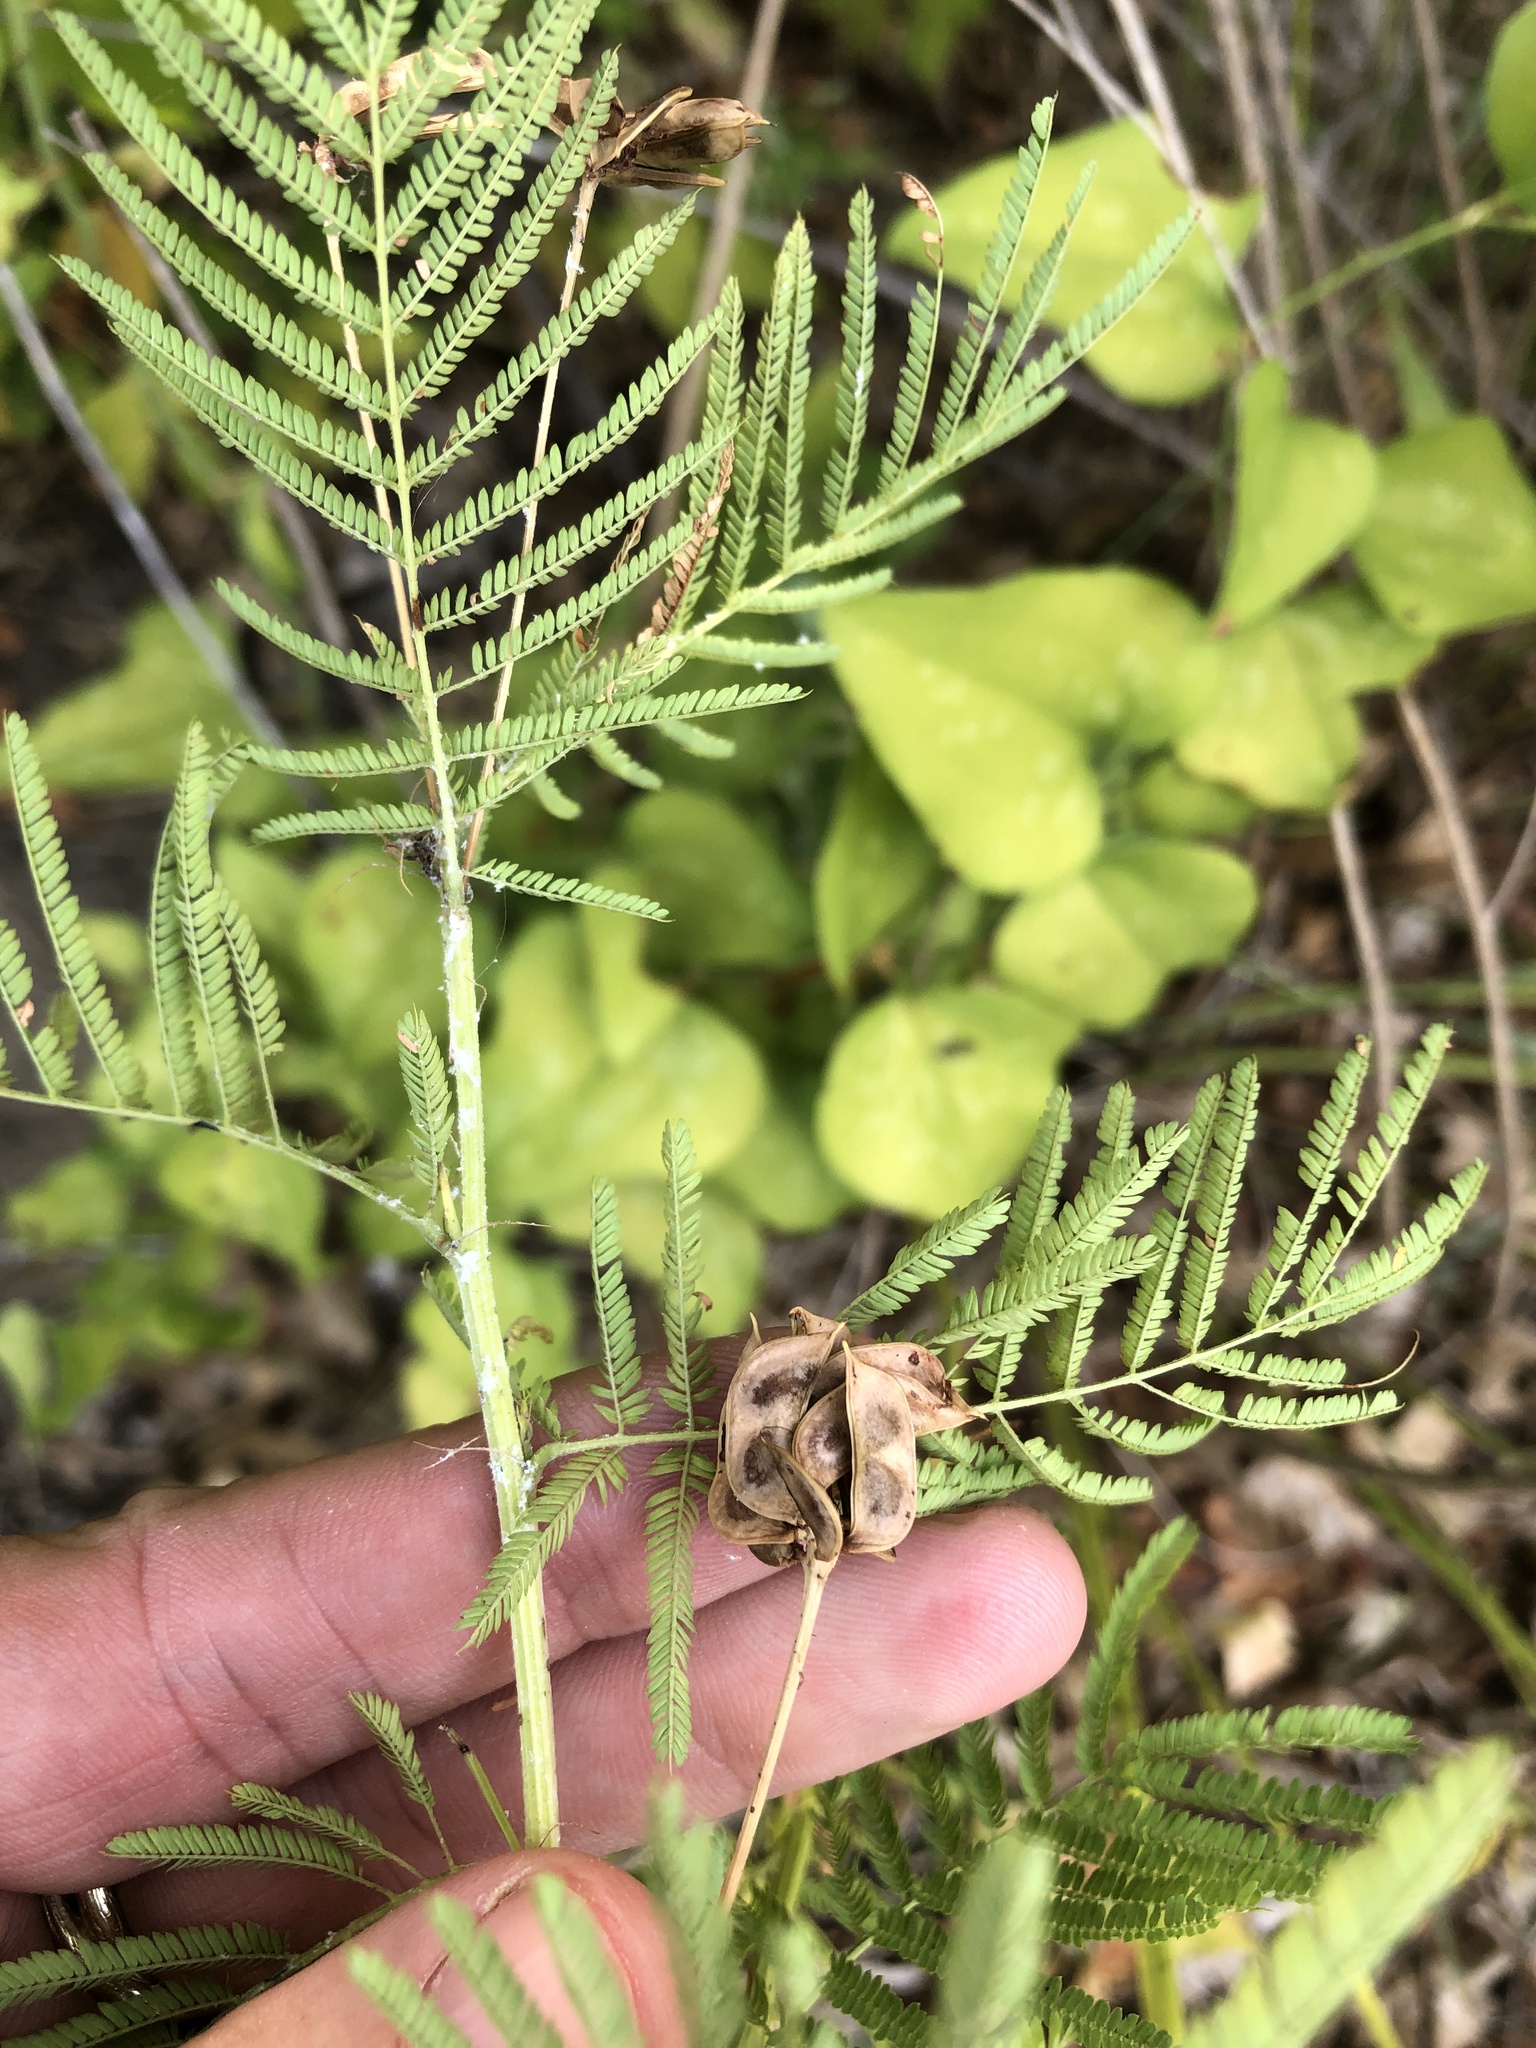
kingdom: Plantae
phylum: Tracheophyta
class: Magnoliopsida
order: Fabales
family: Fabaceae
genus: Desmanthus
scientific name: Desmanthus illinoensis
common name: Illinois bundle-flower
